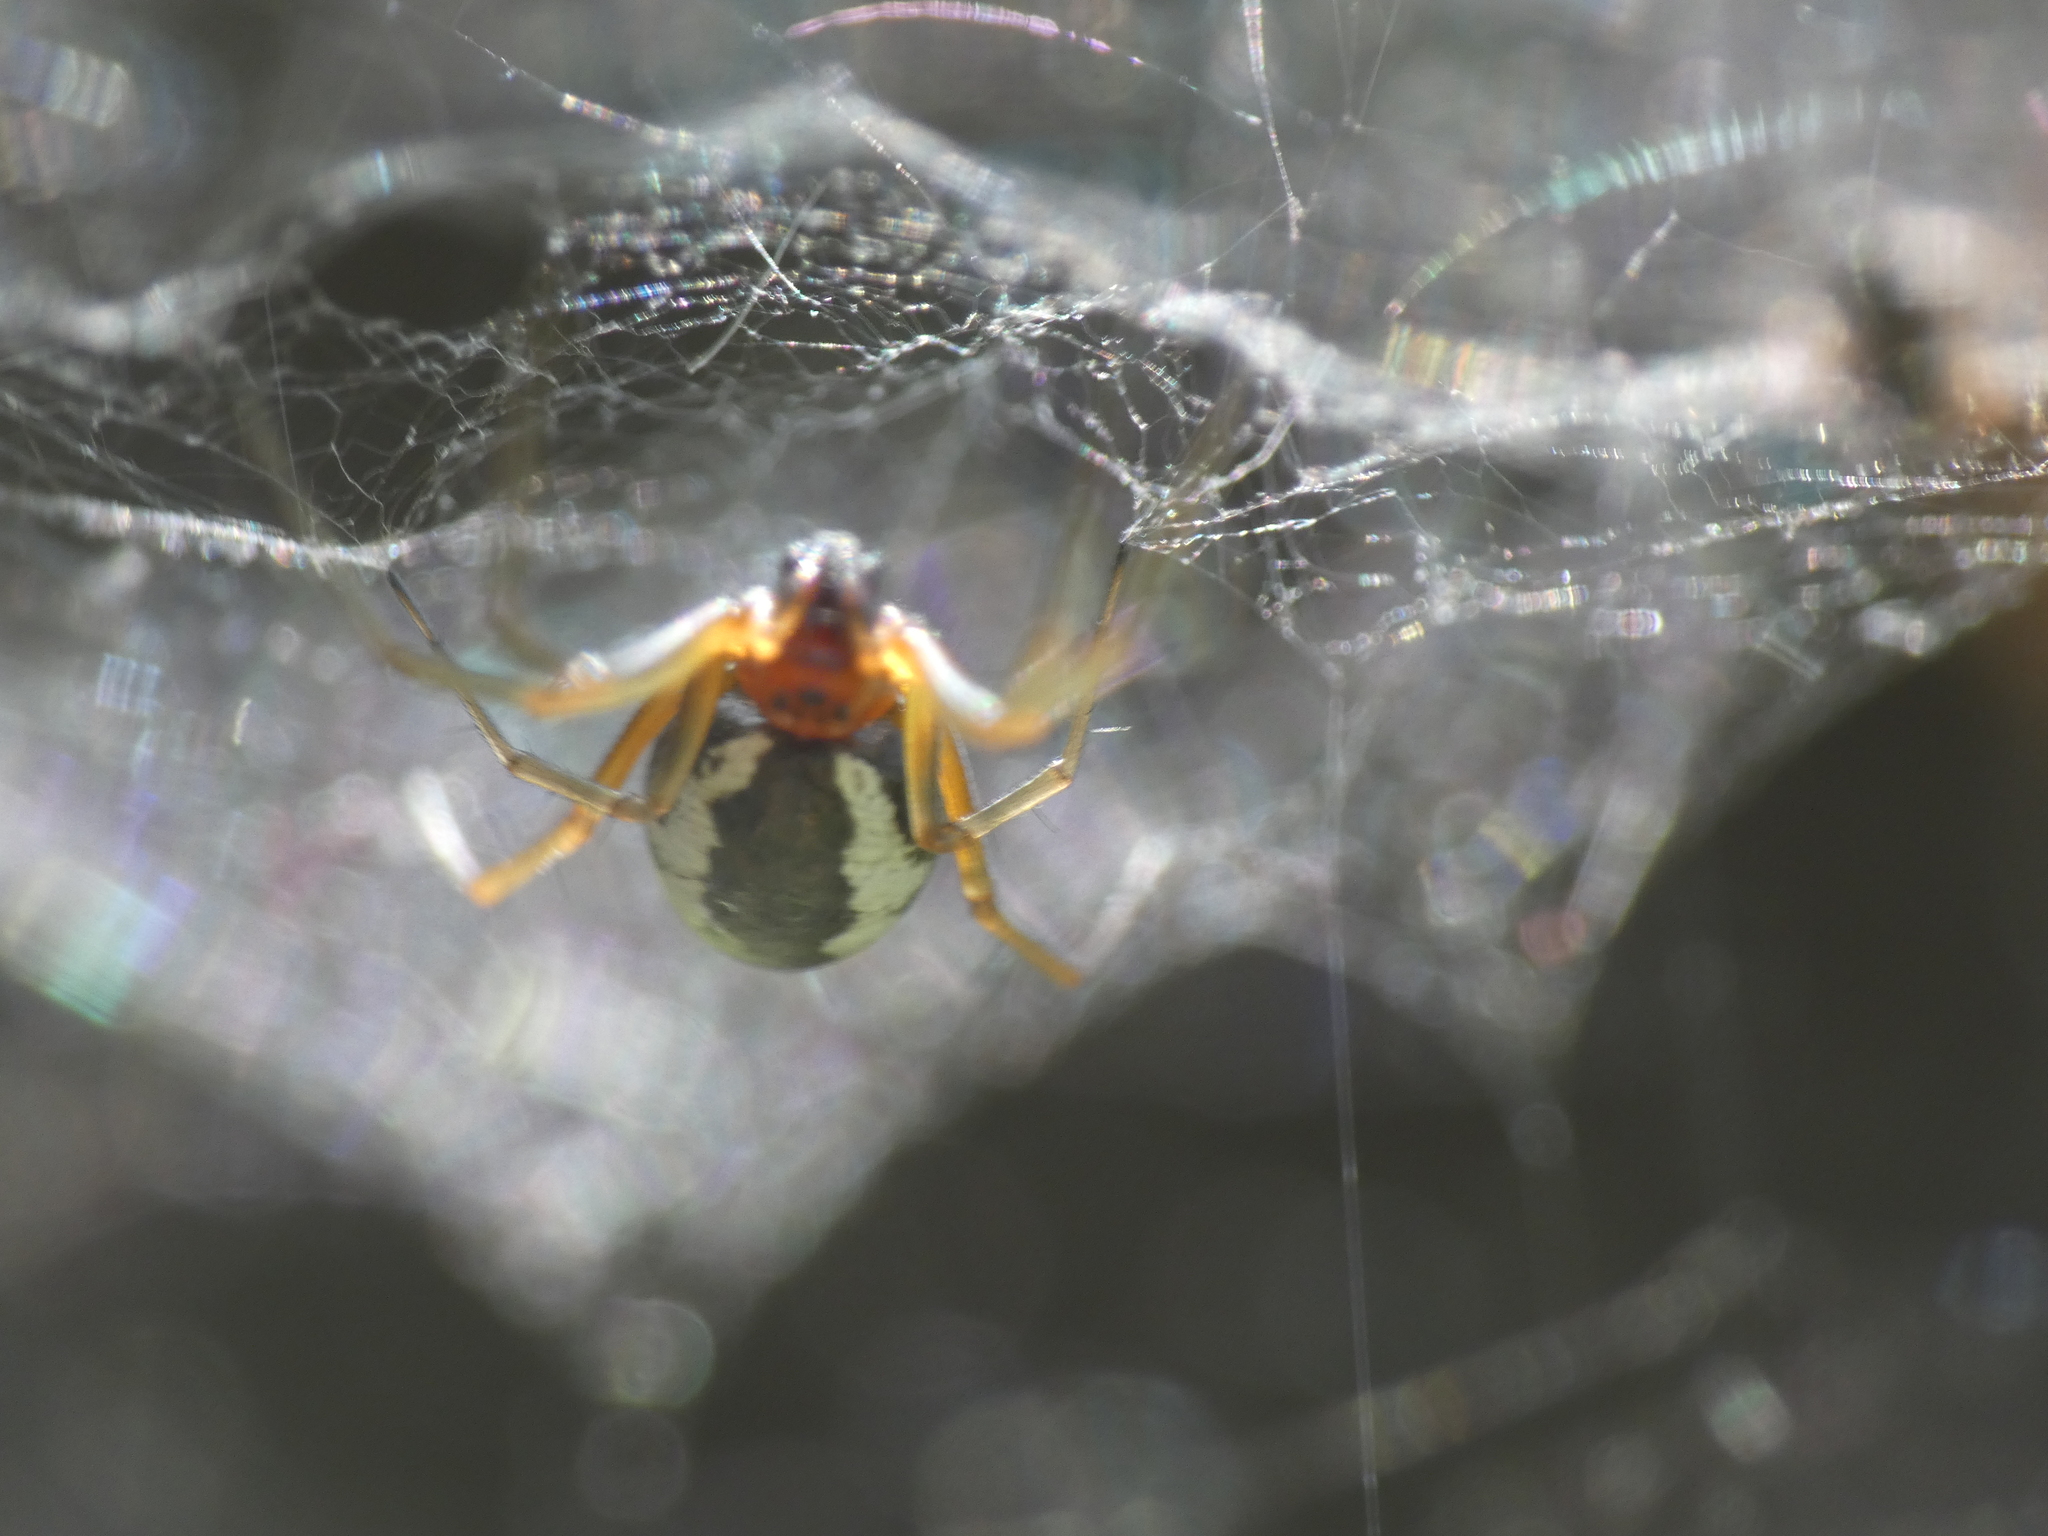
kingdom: Animalia
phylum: Arthropoda
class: Arachnida
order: Araneae
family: Linyphiidae
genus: Frontinellina
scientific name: Frontinellina frutetorum
